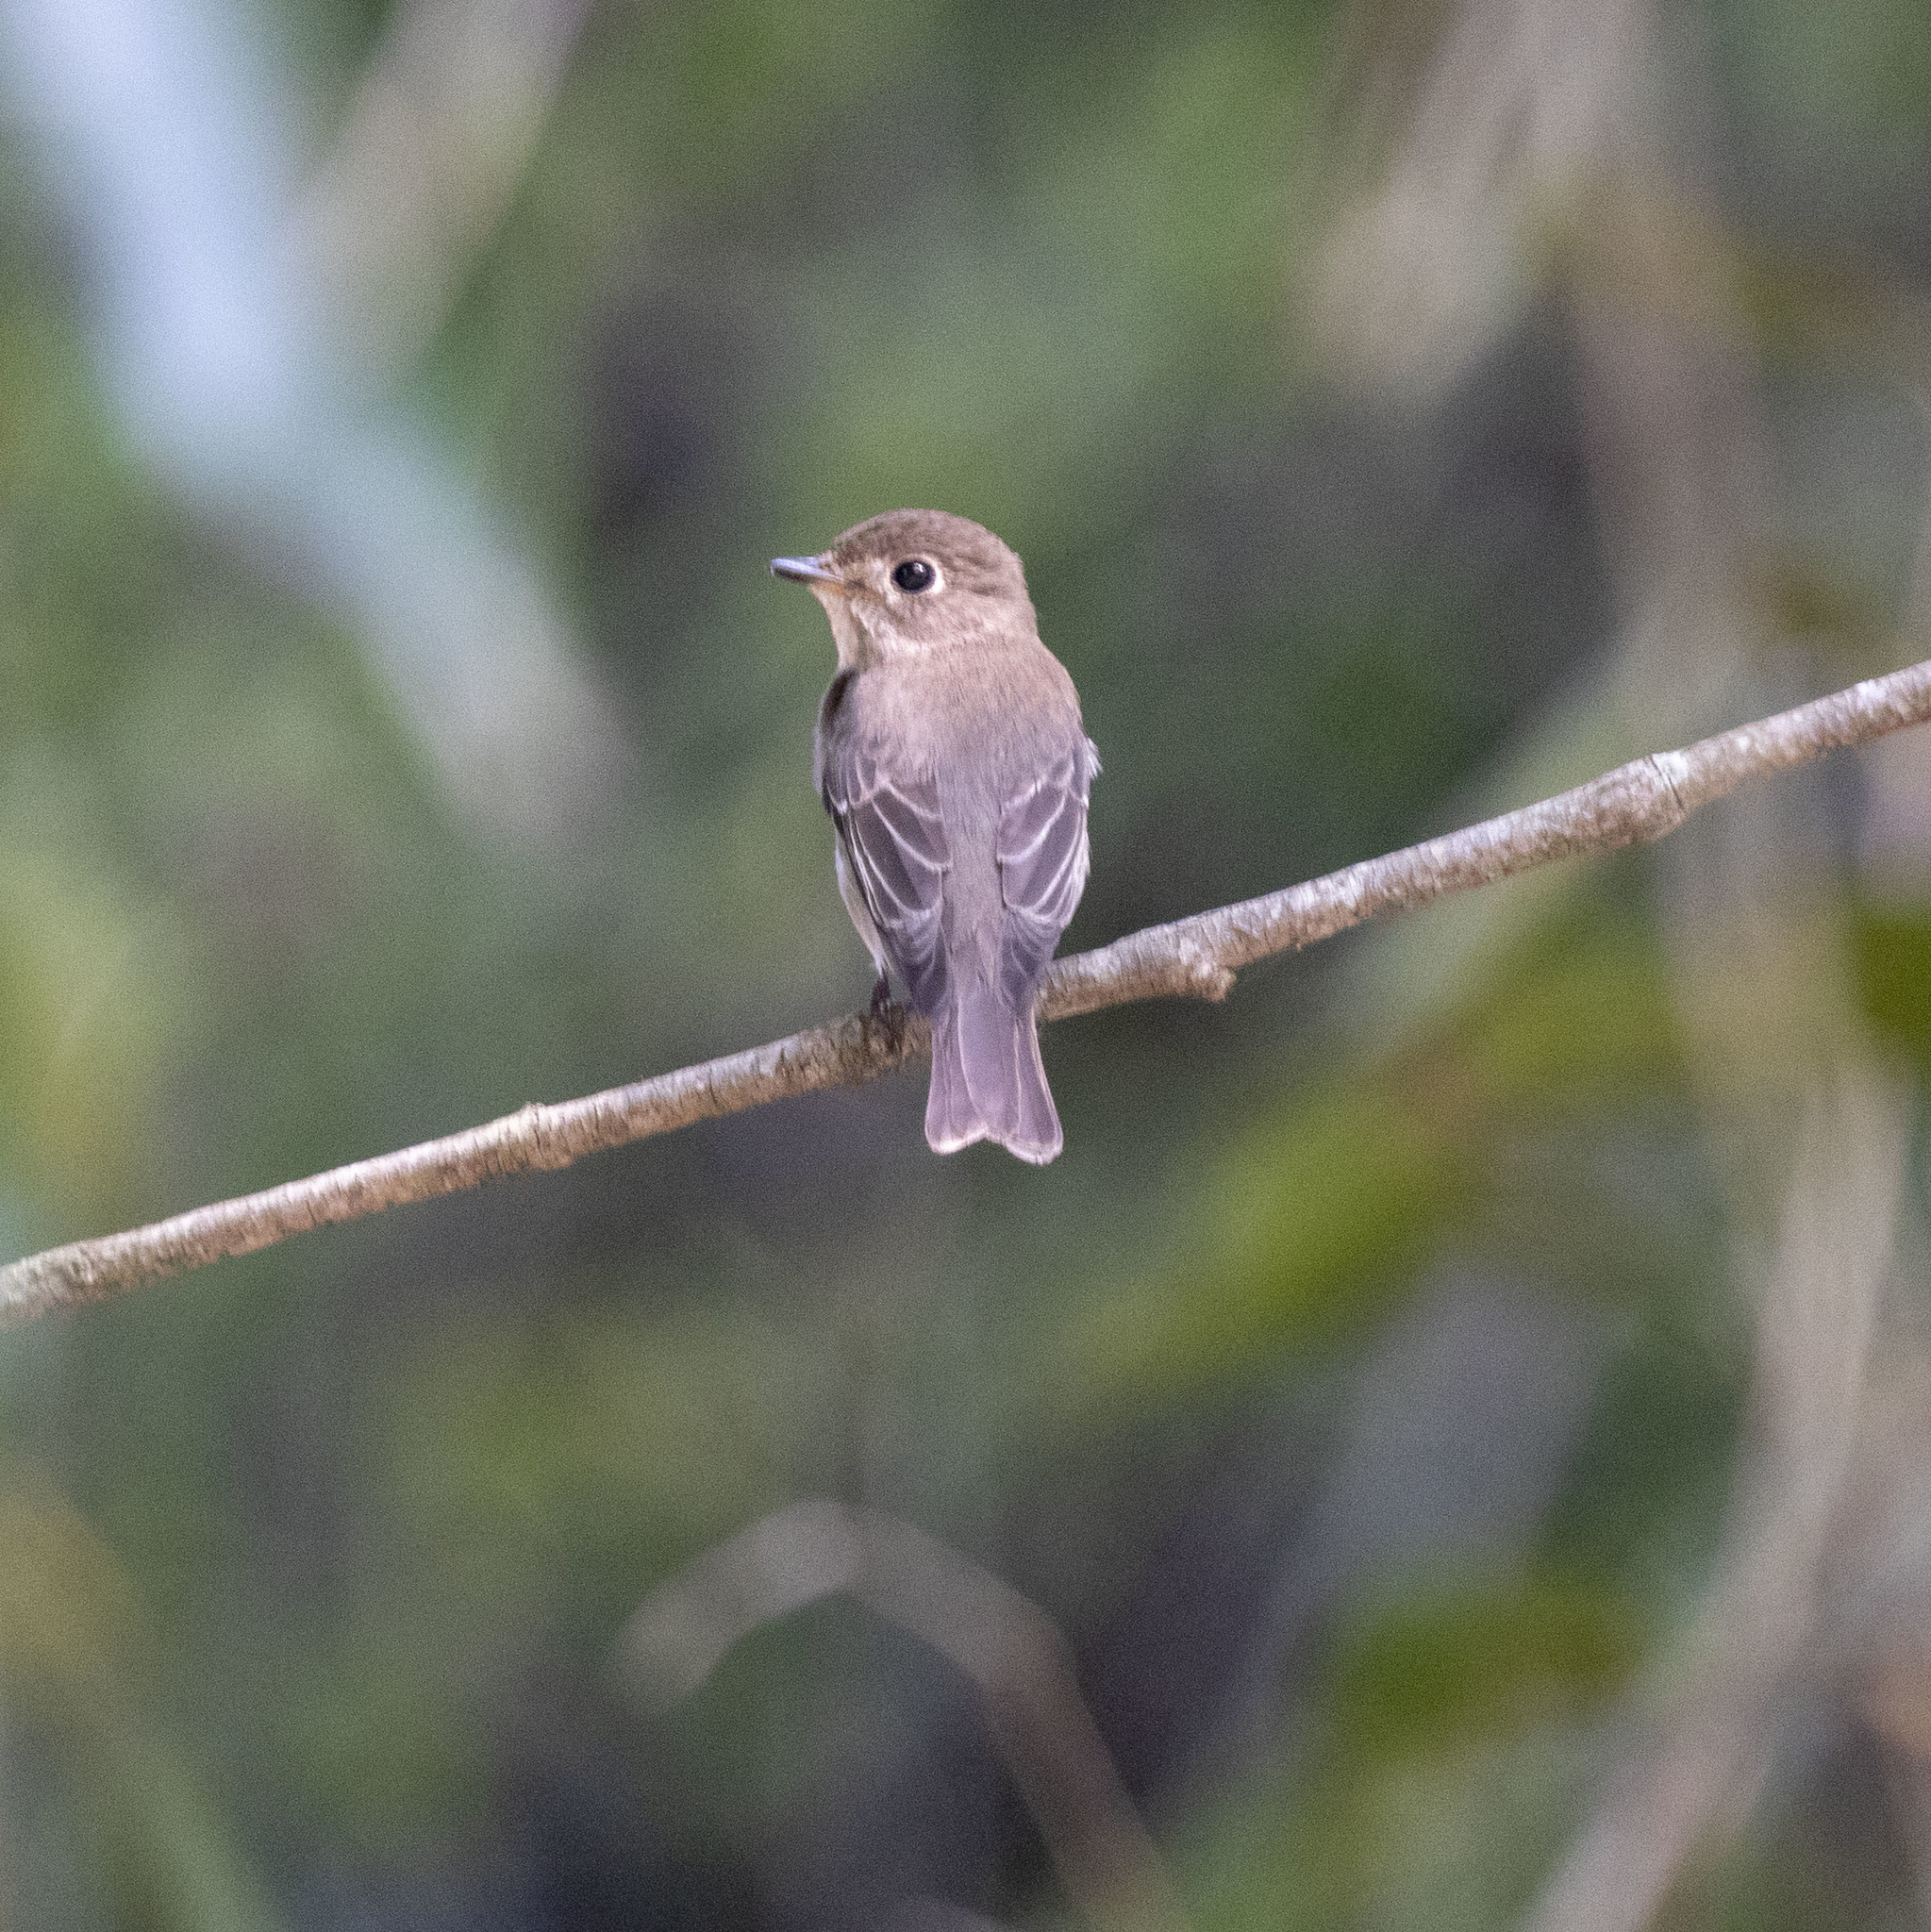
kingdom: Animalia
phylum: Chordata
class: Aves
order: Passeriformes
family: Muscicapidae
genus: Muscicapa
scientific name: Muscicapa latirostris
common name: Asian brown flycatcher
